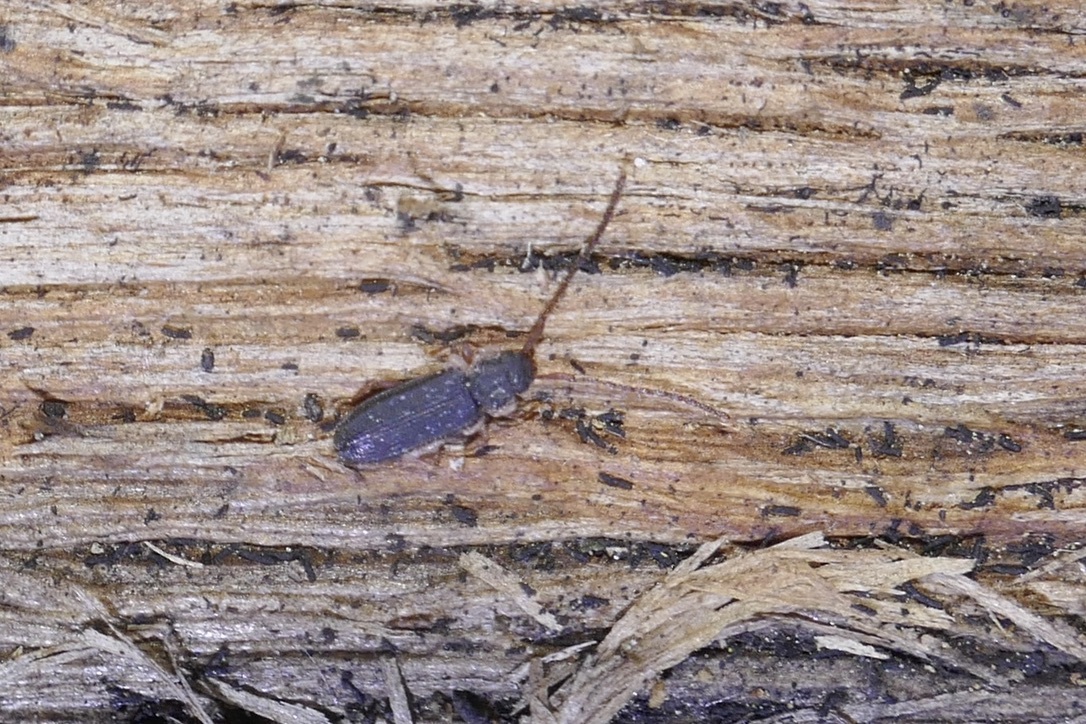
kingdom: Animalia
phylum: Arthropoda
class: Insecta
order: Coleoptera
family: Silvanidae
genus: Uleiota
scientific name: Uleiota planatus
